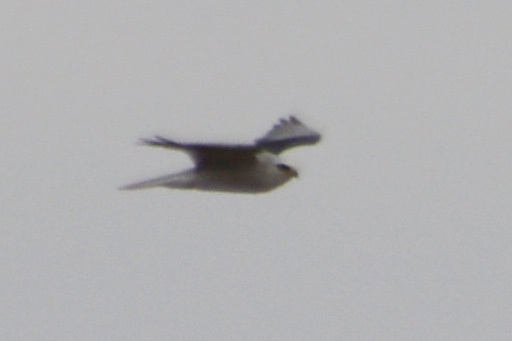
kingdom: Animalia
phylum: Chordata
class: Aves
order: Accipitriformes
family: Accipitridae
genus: Elanus
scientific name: Elanus leucurus
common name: White-tailed kite
